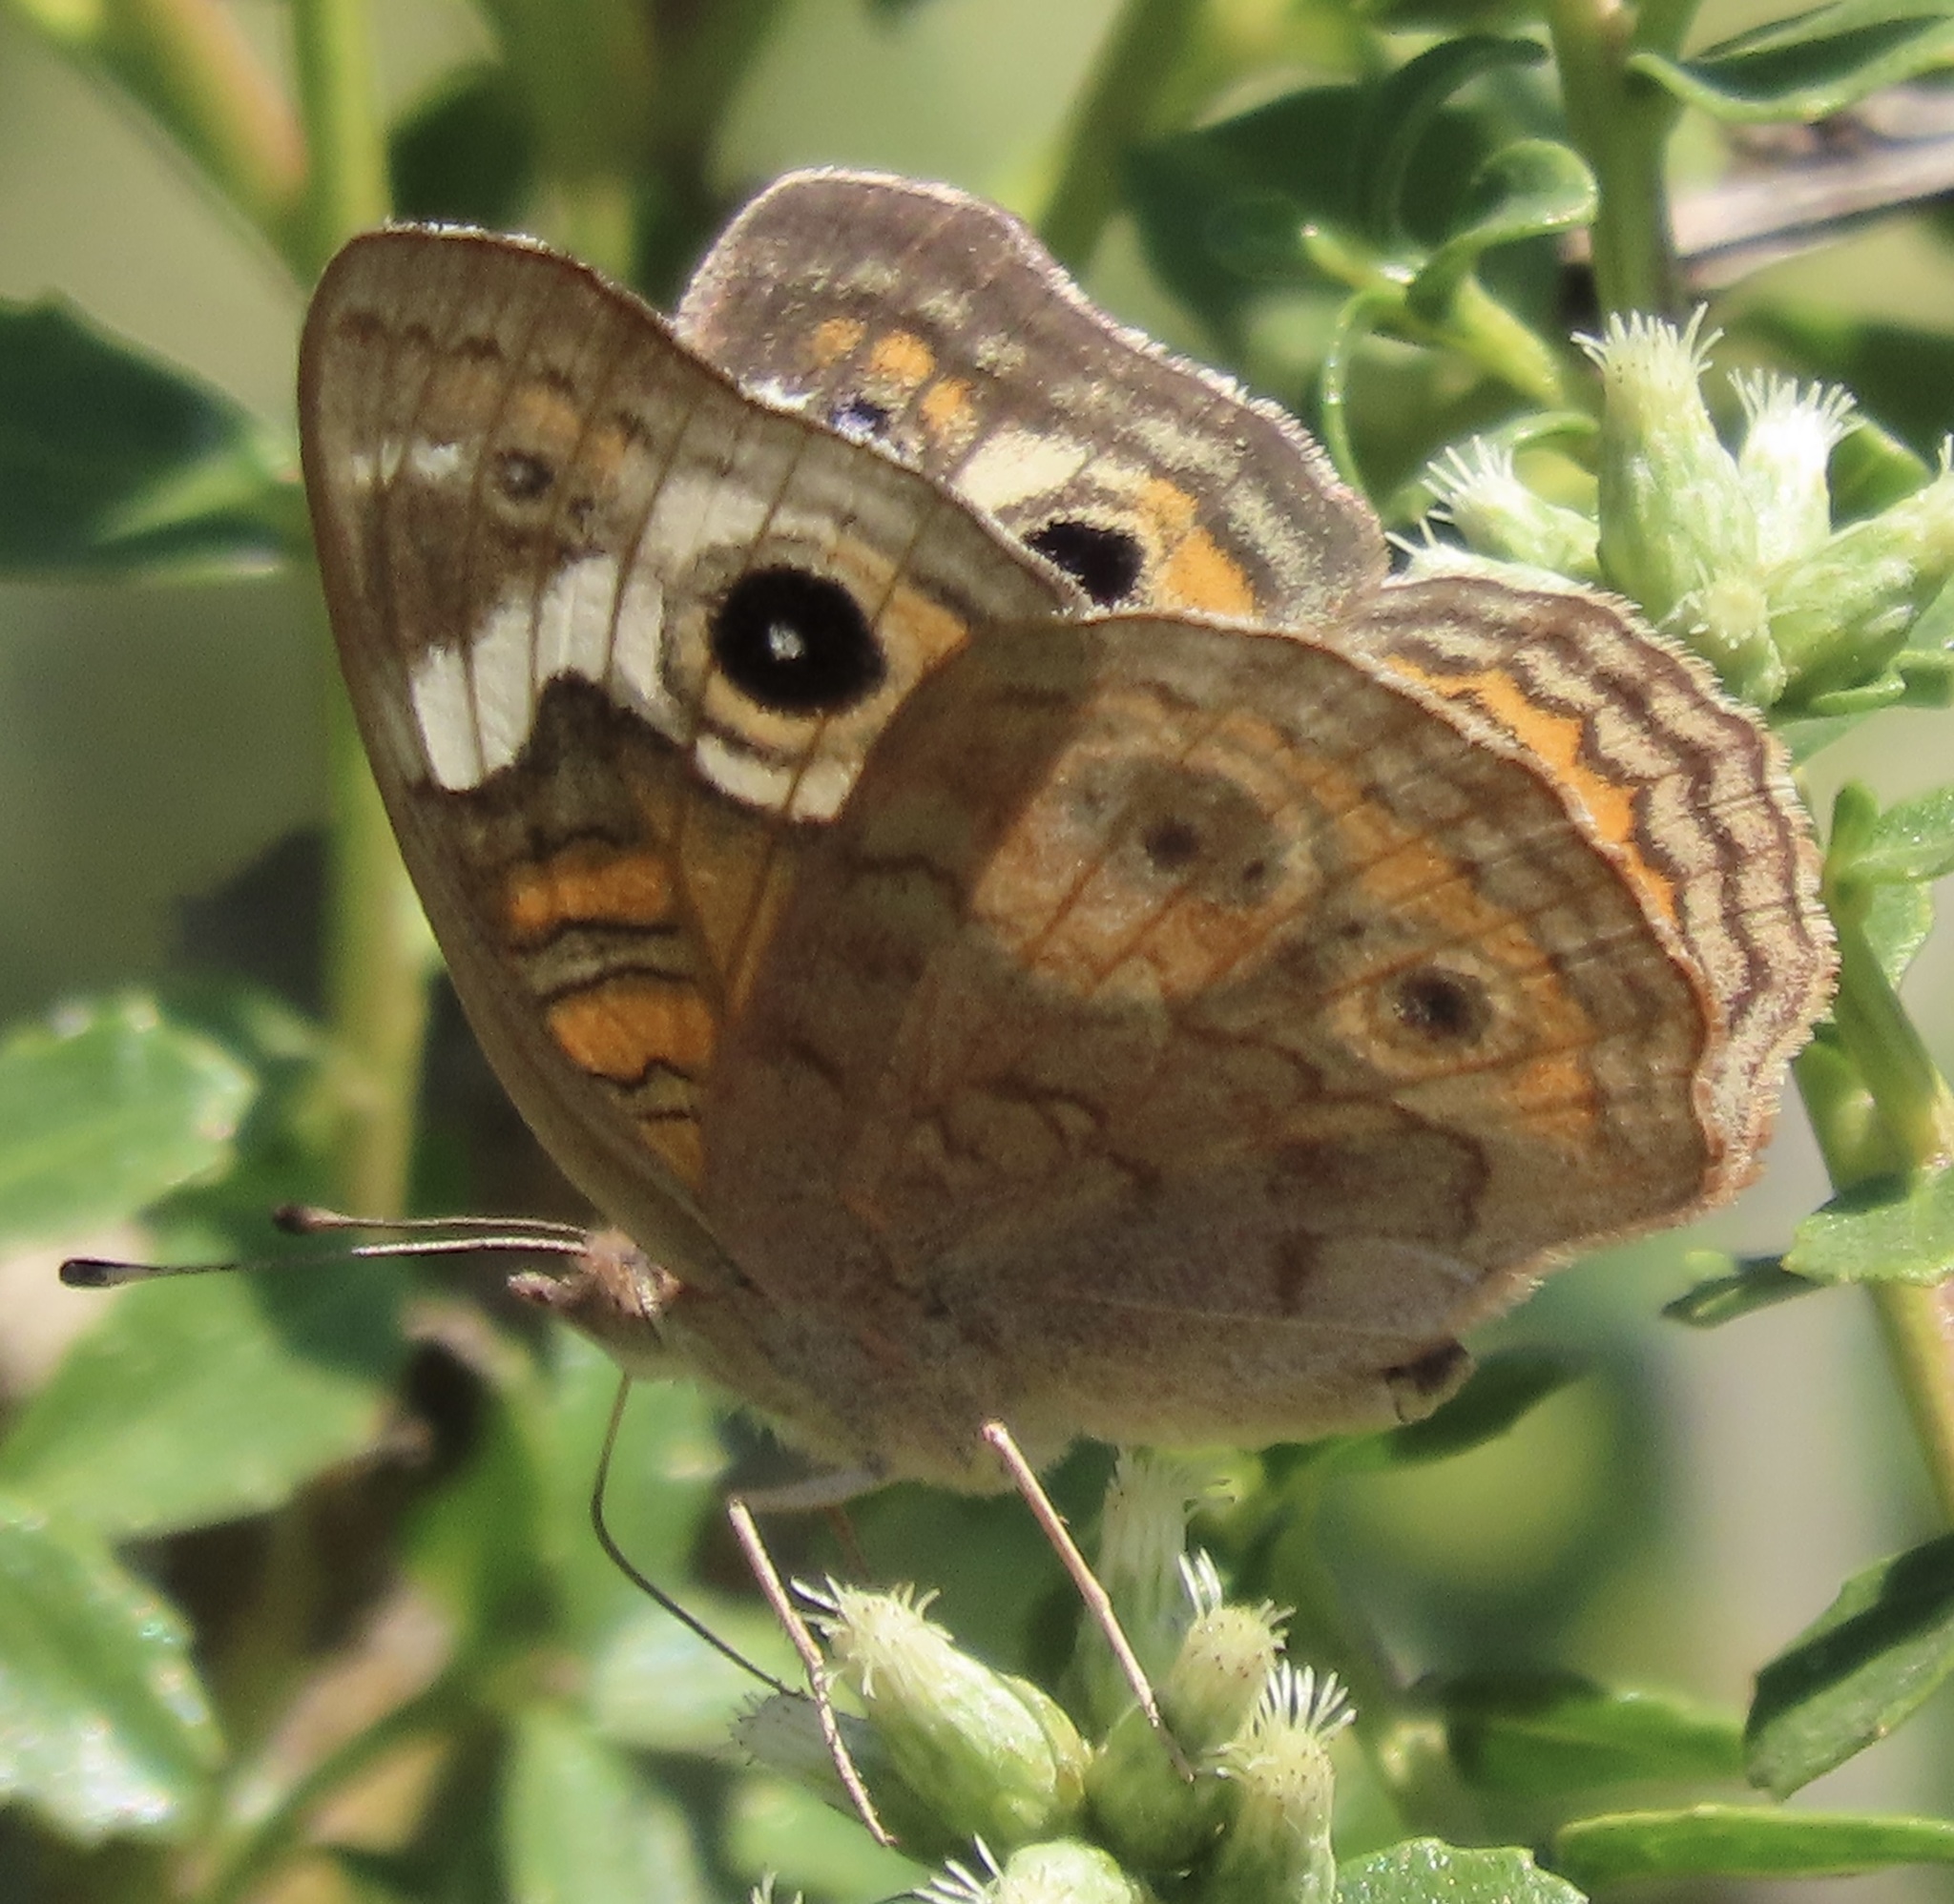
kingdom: Animalia
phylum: Arthropoda
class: Insecta
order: Lepidoptera
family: Nymphalidae
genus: Junonia
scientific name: Junonia grisea
